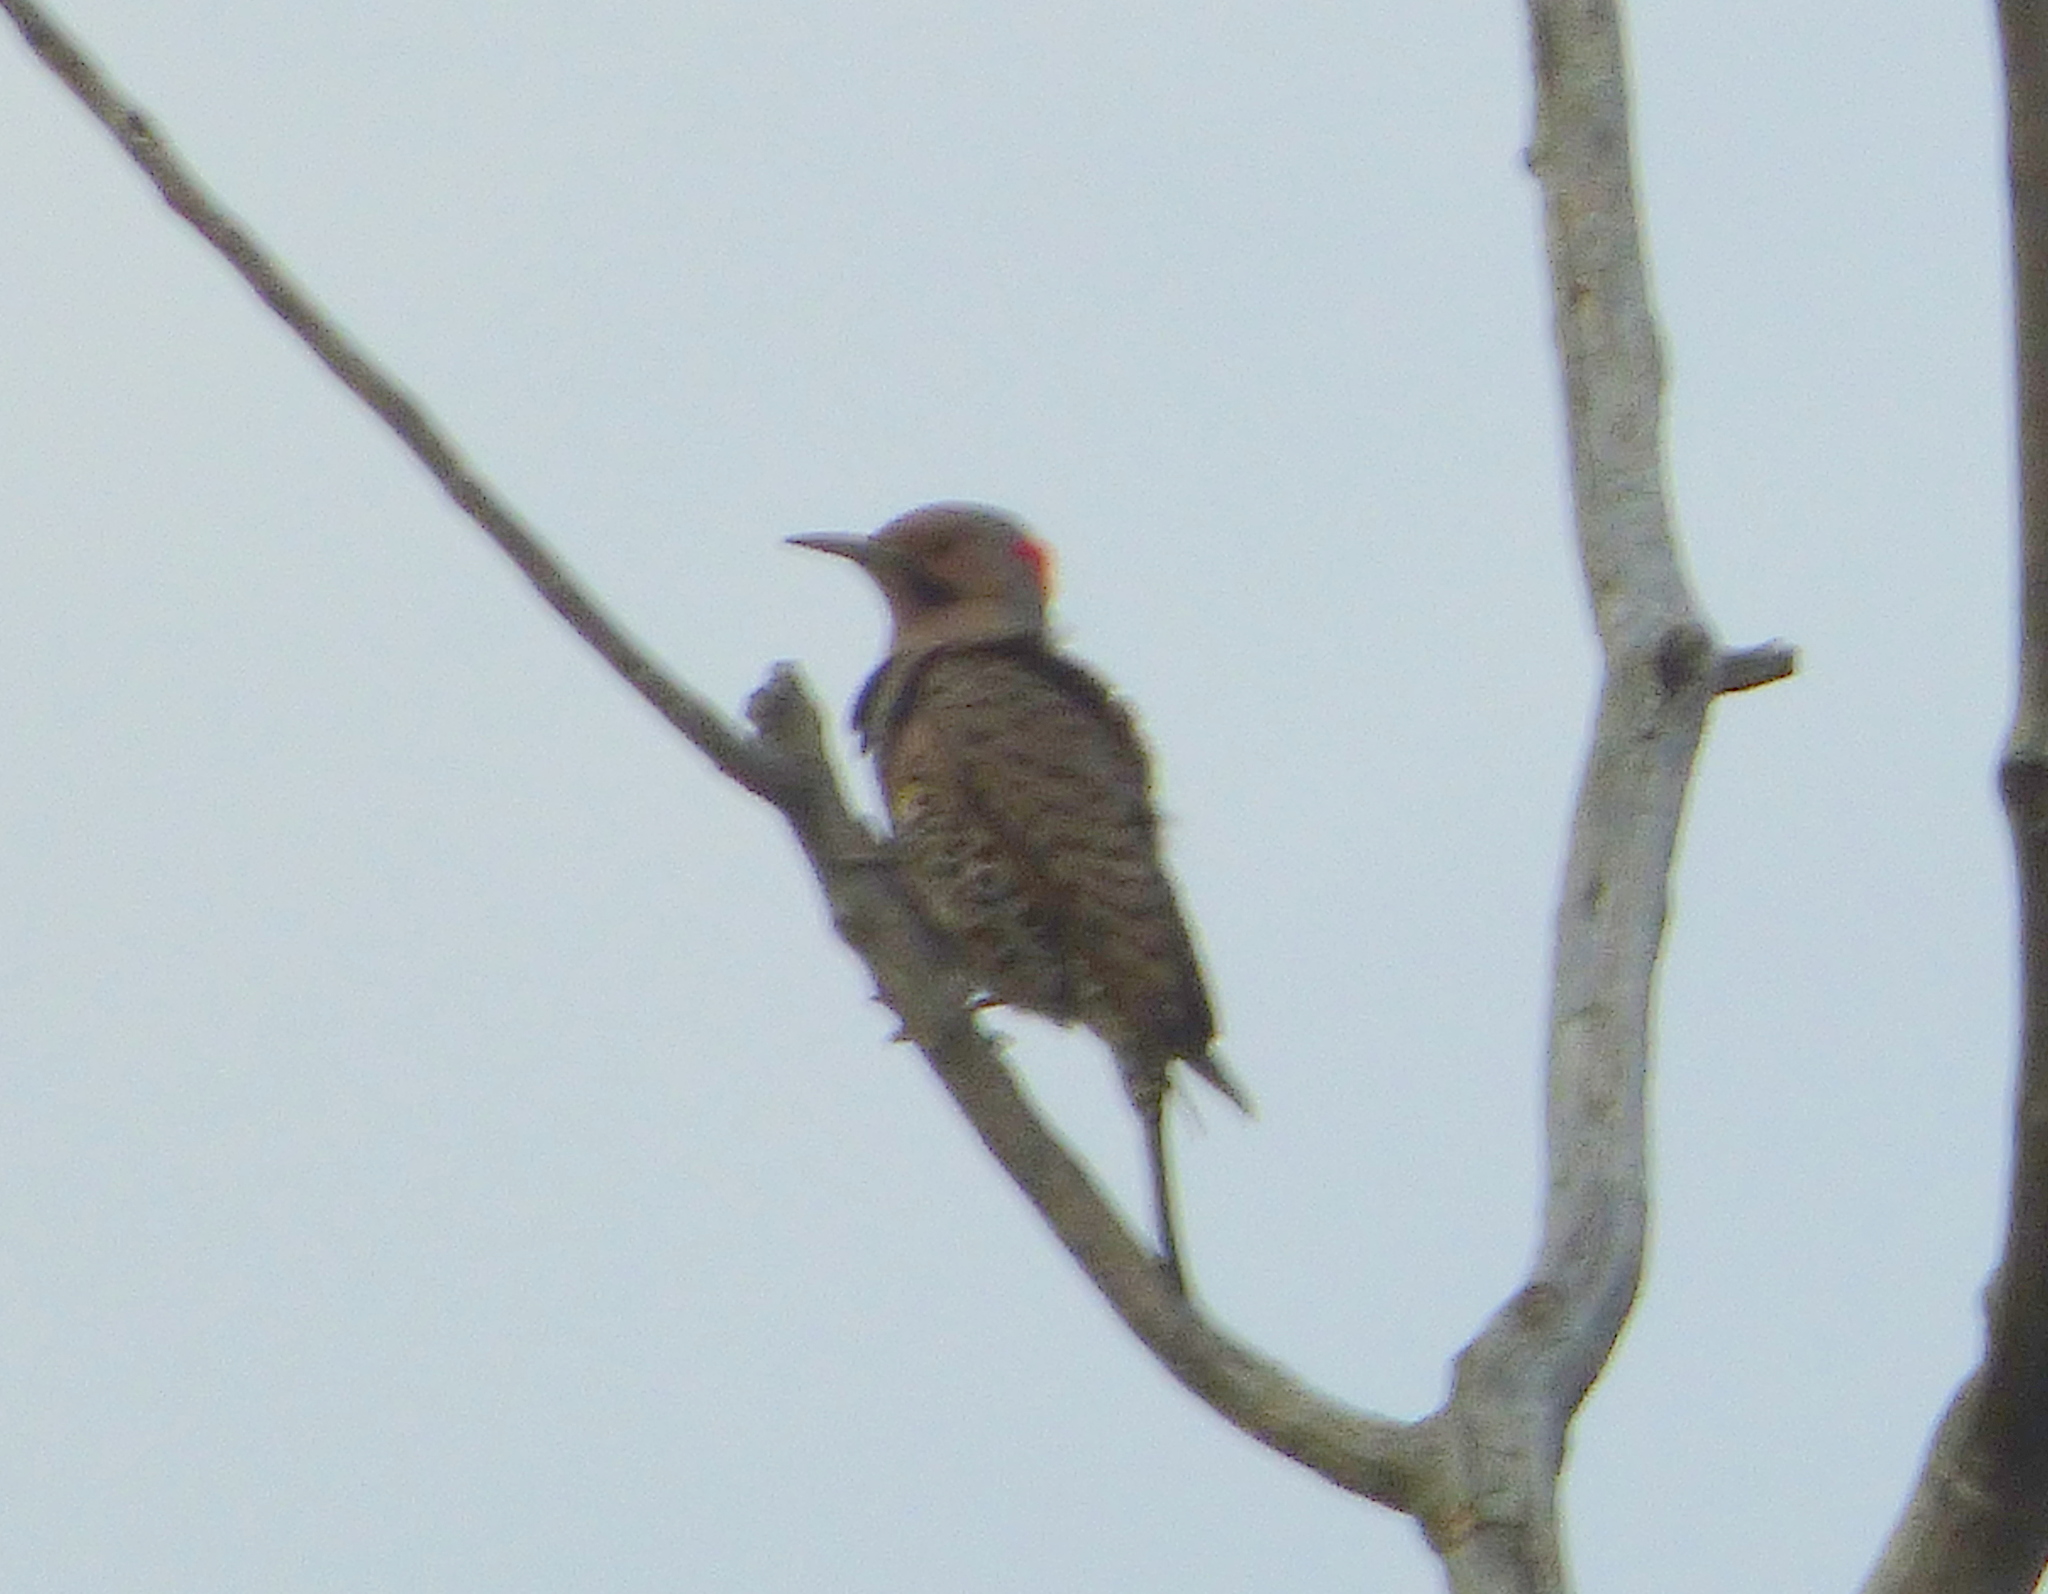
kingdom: Animalia
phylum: Chordata
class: Aves
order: Piciformes
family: Picidae
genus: Colaptes
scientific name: Colaptes auratus
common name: Northern flicker
